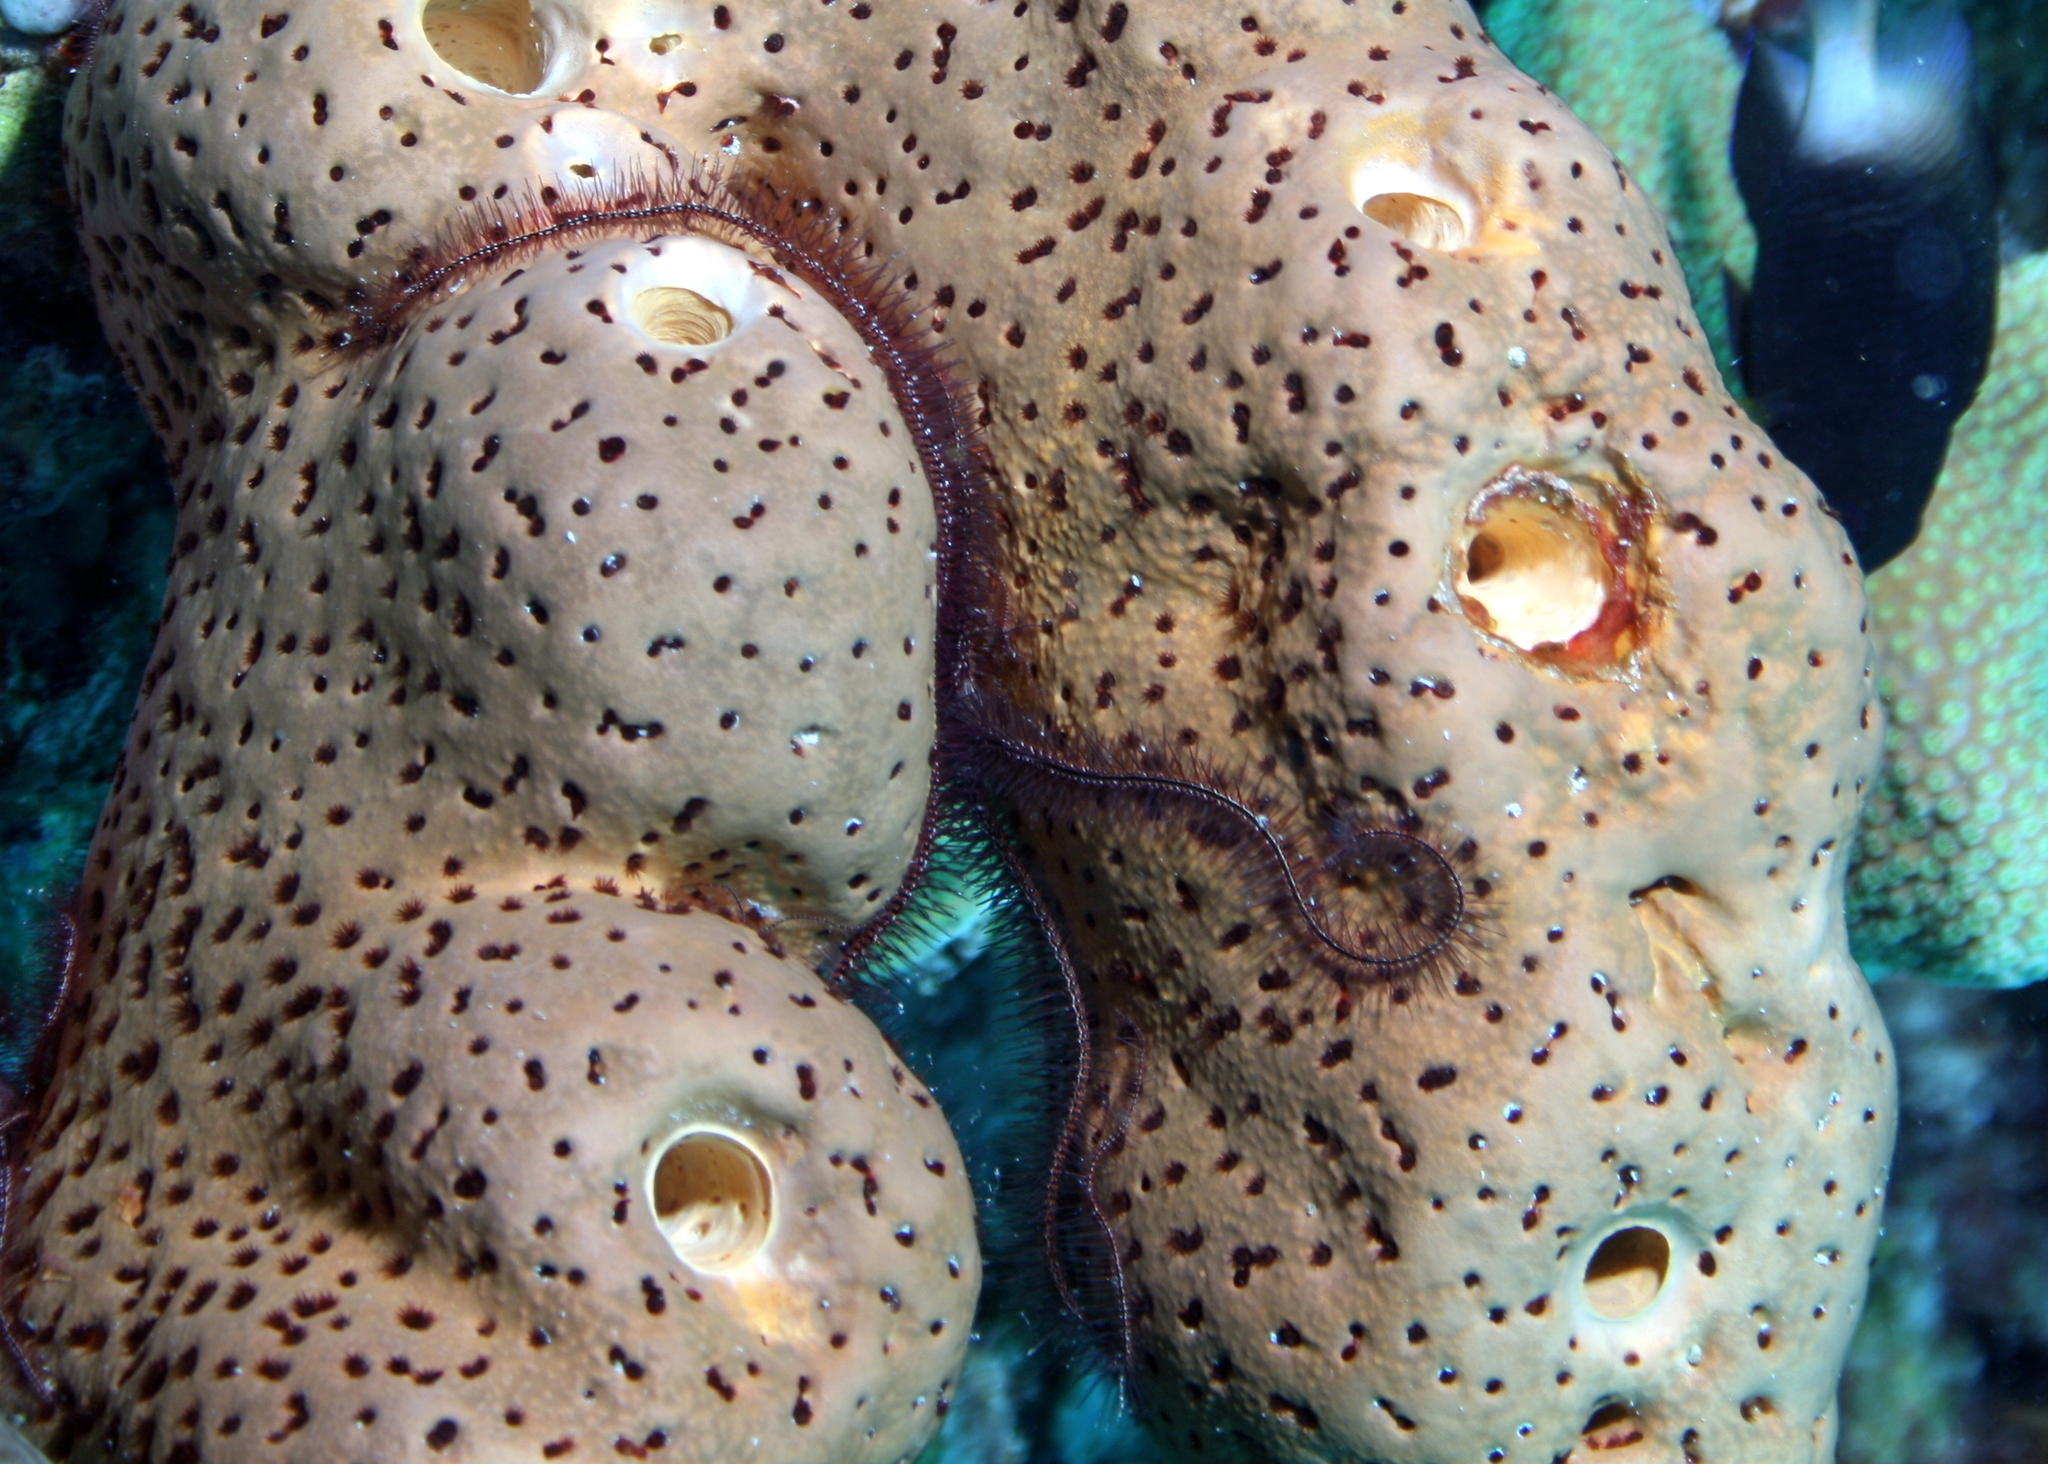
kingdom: Animalia
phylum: Echinodermata
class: Ophiuroidea
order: Amphilepidida
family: Ophiotrichidae
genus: Ophiothrix
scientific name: Ophiothrix suensonii
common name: Sponge brittle star
